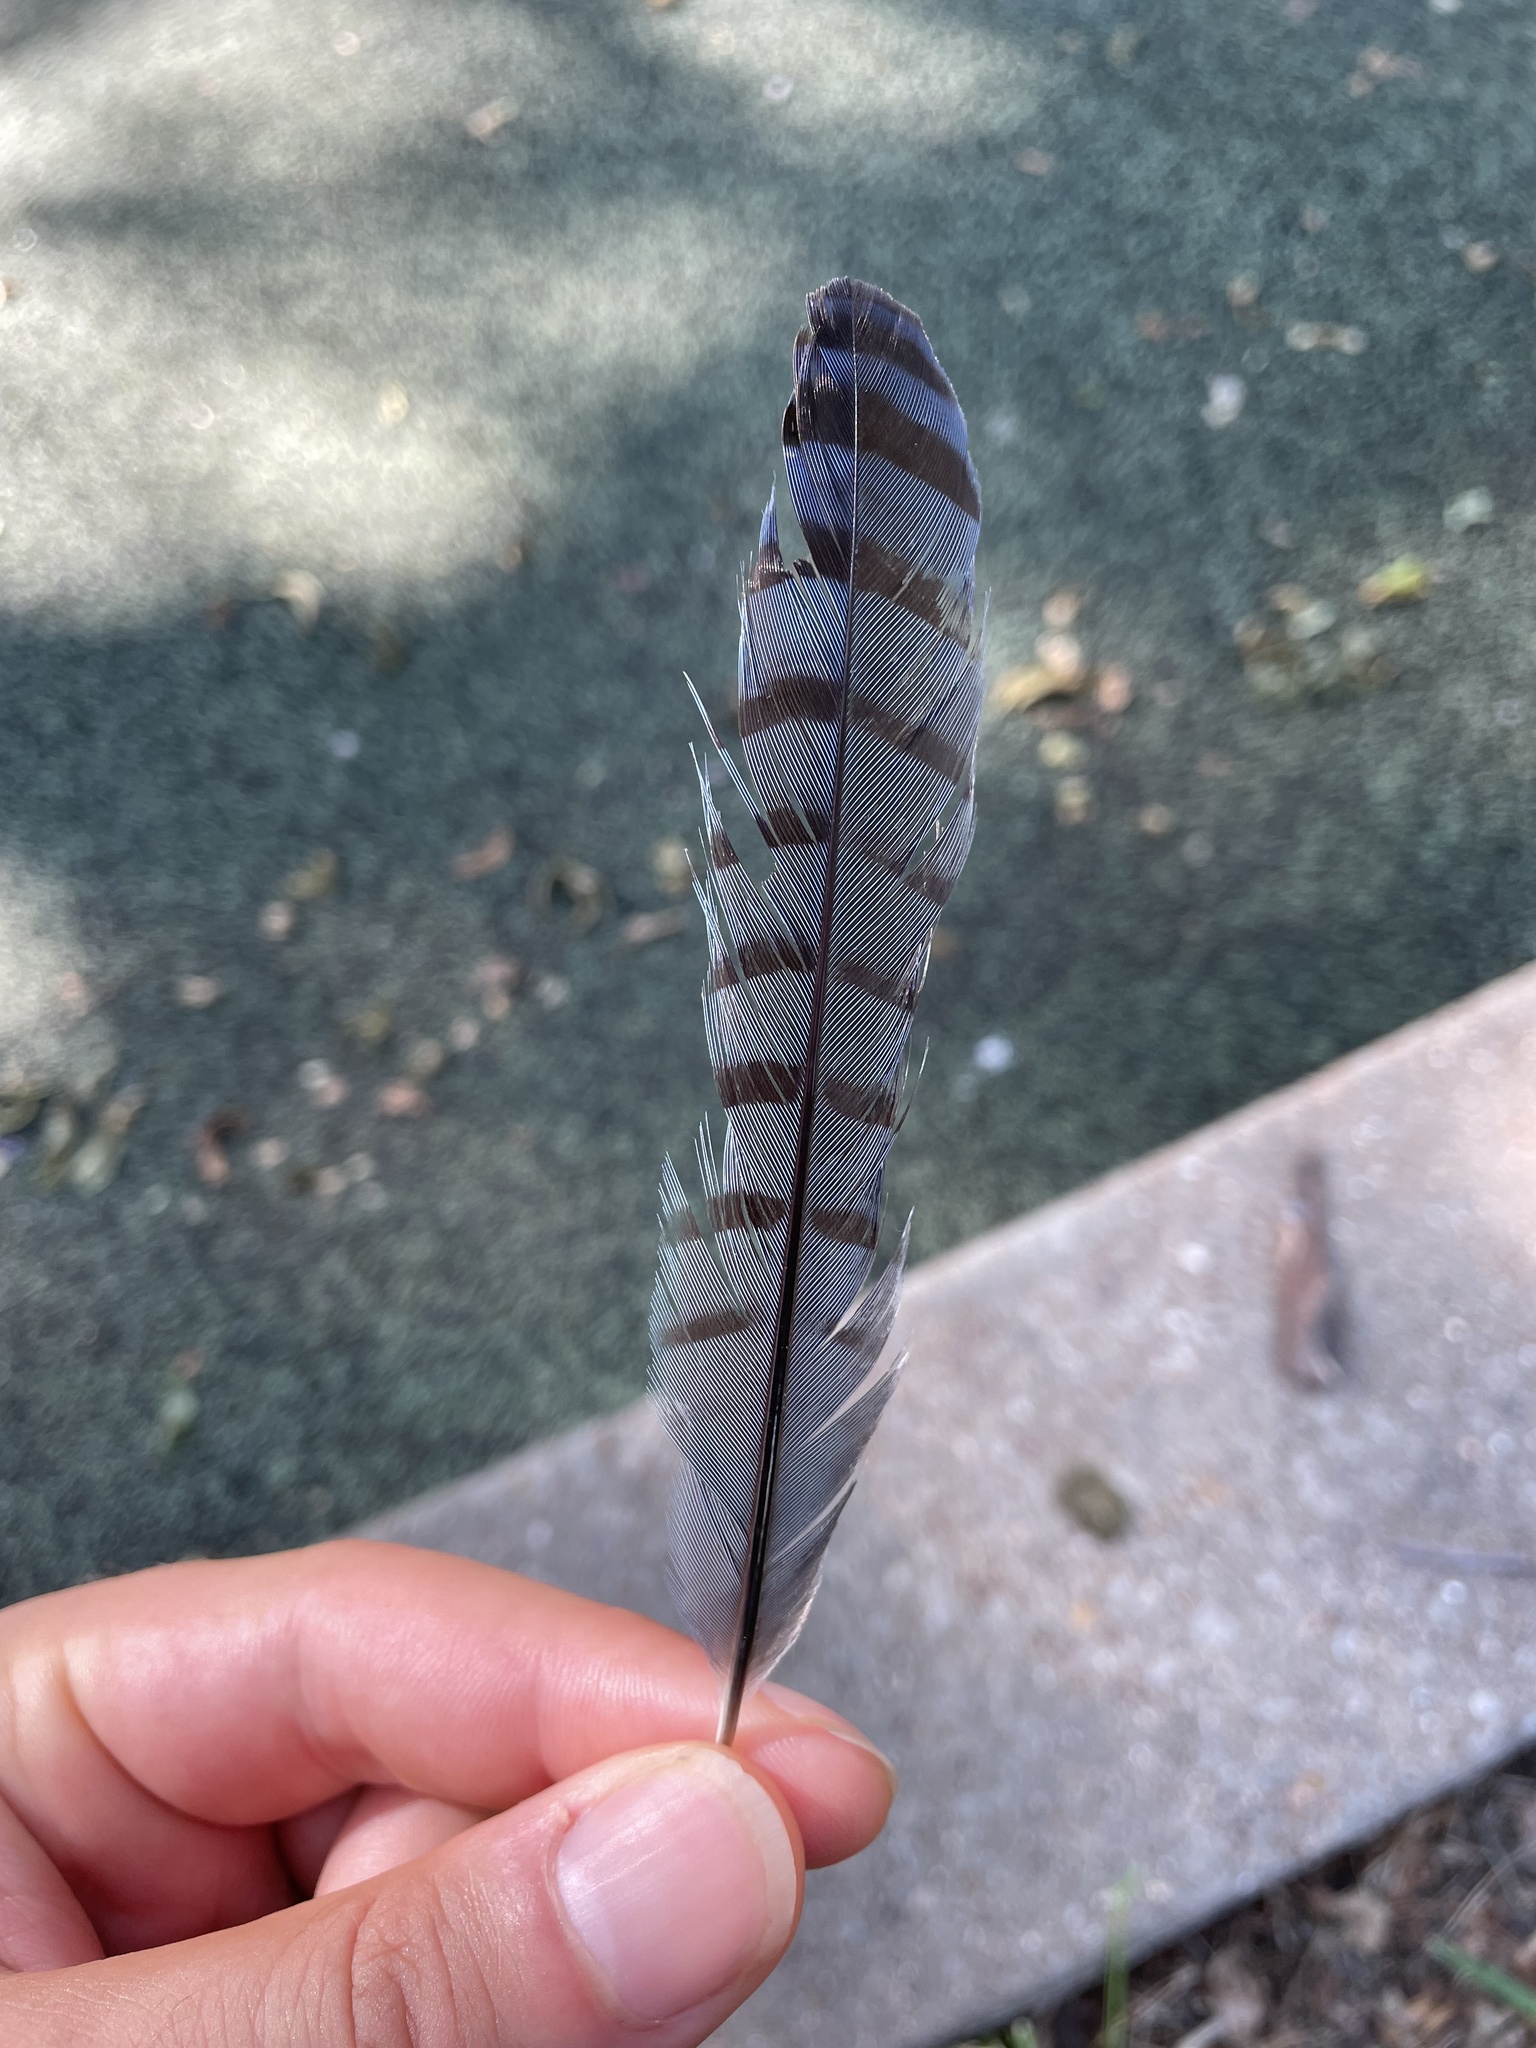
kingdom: Animalia
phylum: Chordata
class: Aves
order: Passeriformes
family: Corvidae
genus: Cyanocitta
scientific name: Cyanocitta cristata
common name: Blue jay
